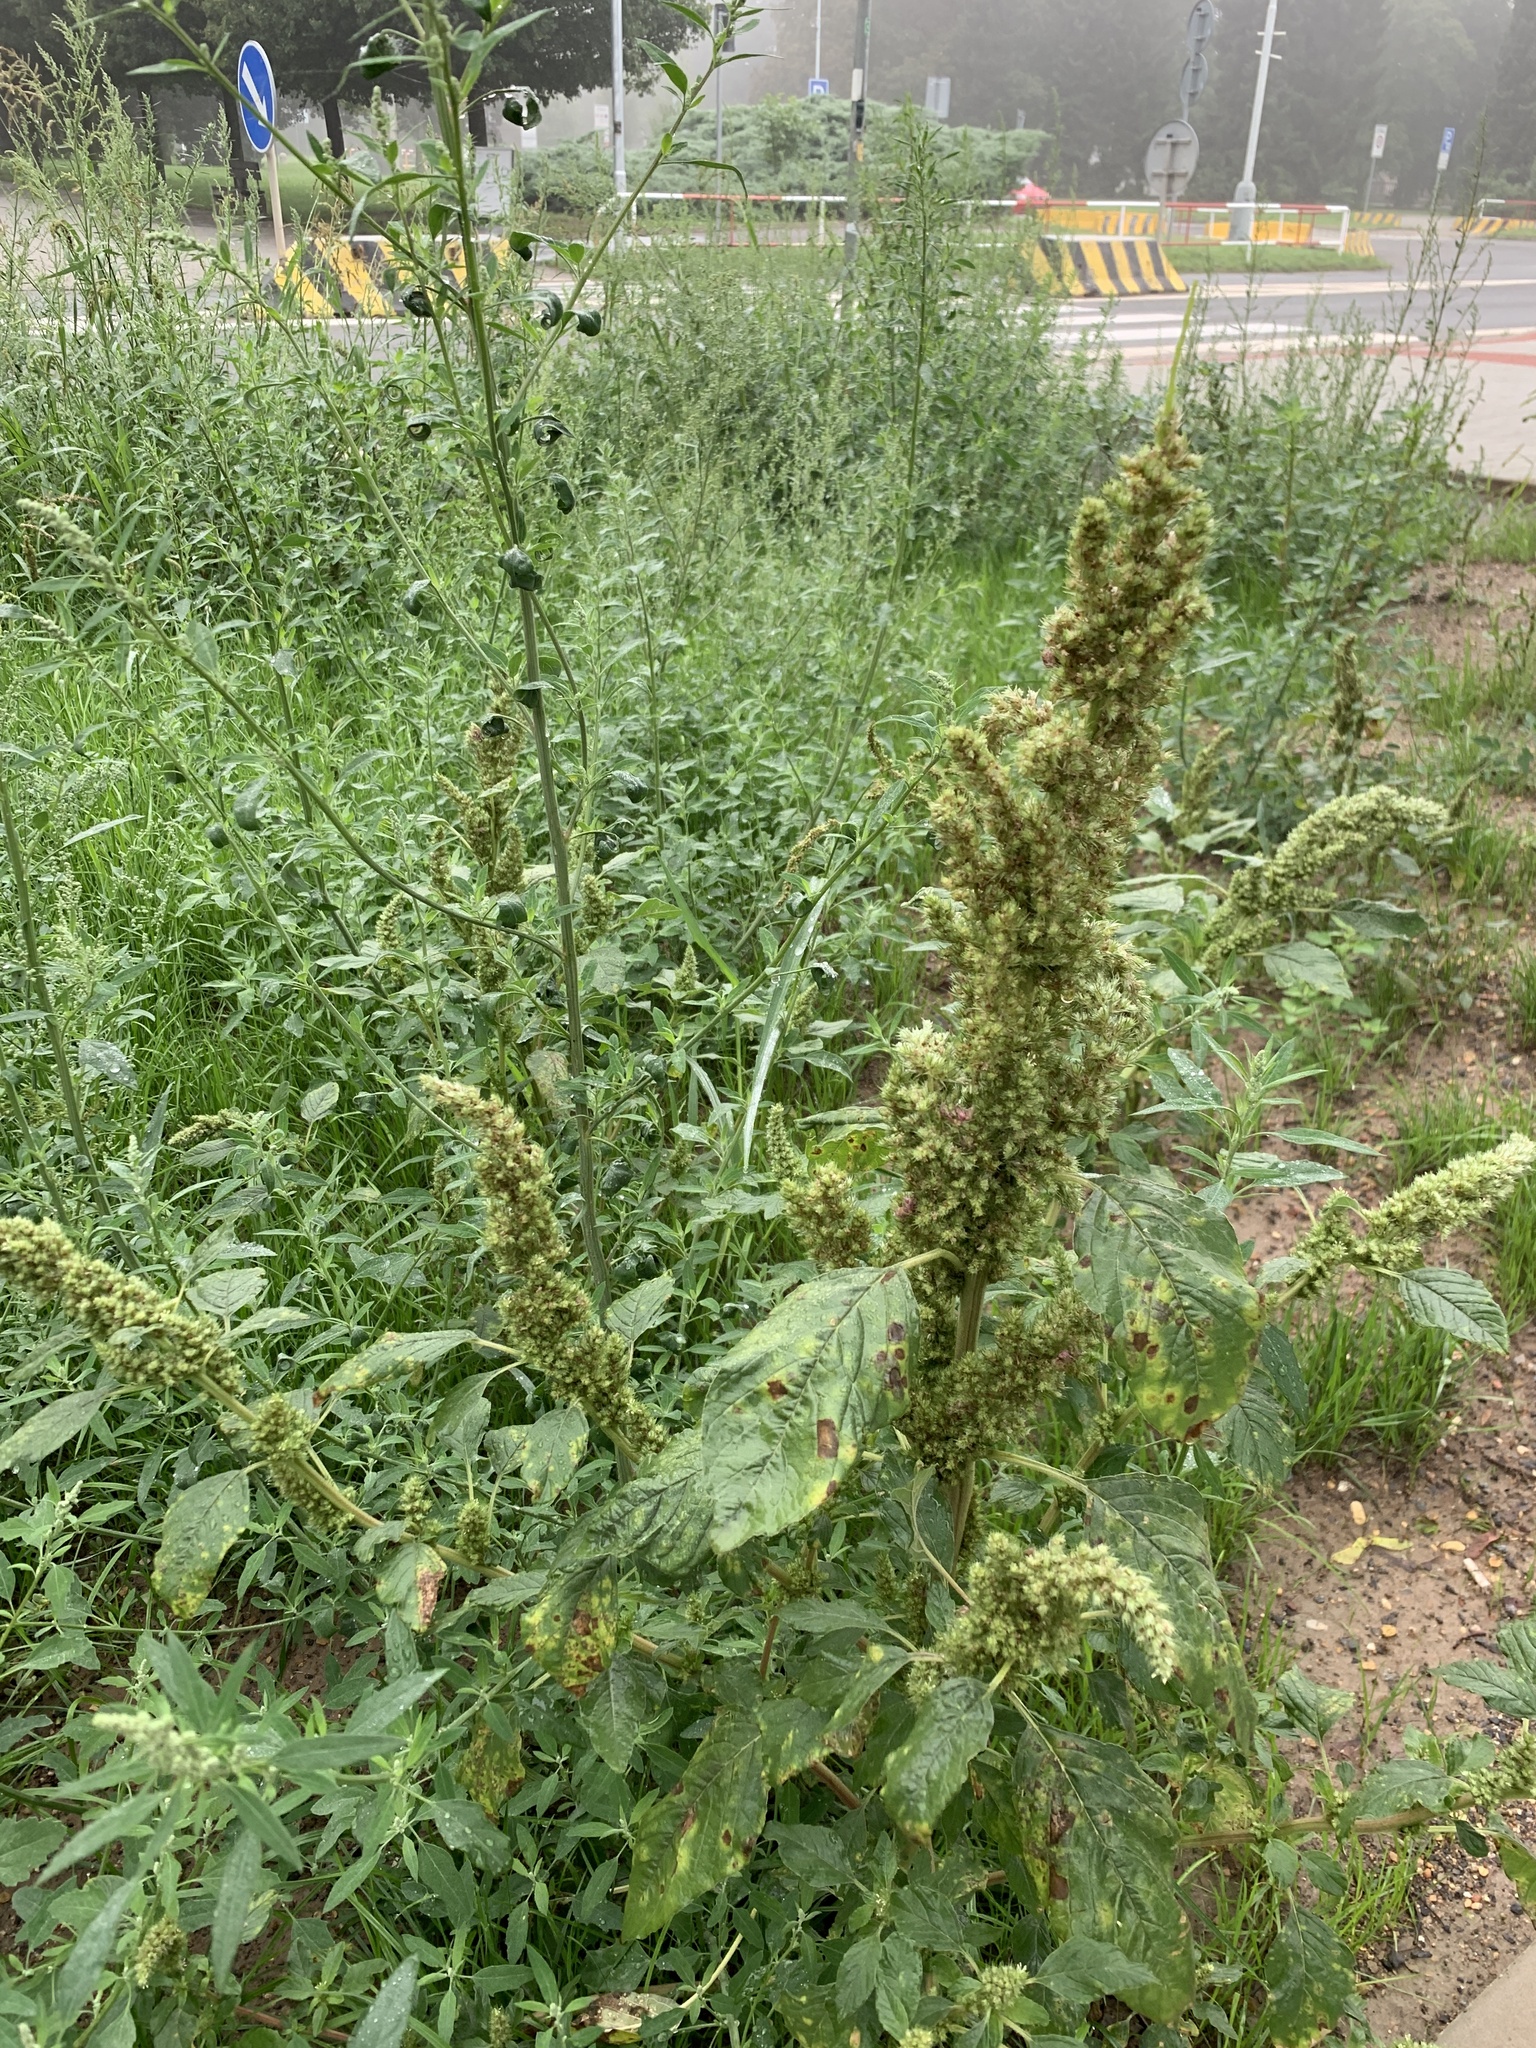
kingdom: Plantae
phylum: Tracheophyta
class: Magnoliopsida
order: Caryophyllales
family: Amaranthaceae
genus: Amaranthus
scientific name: Amaranthus retroflexus
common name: Redroot amaranth
